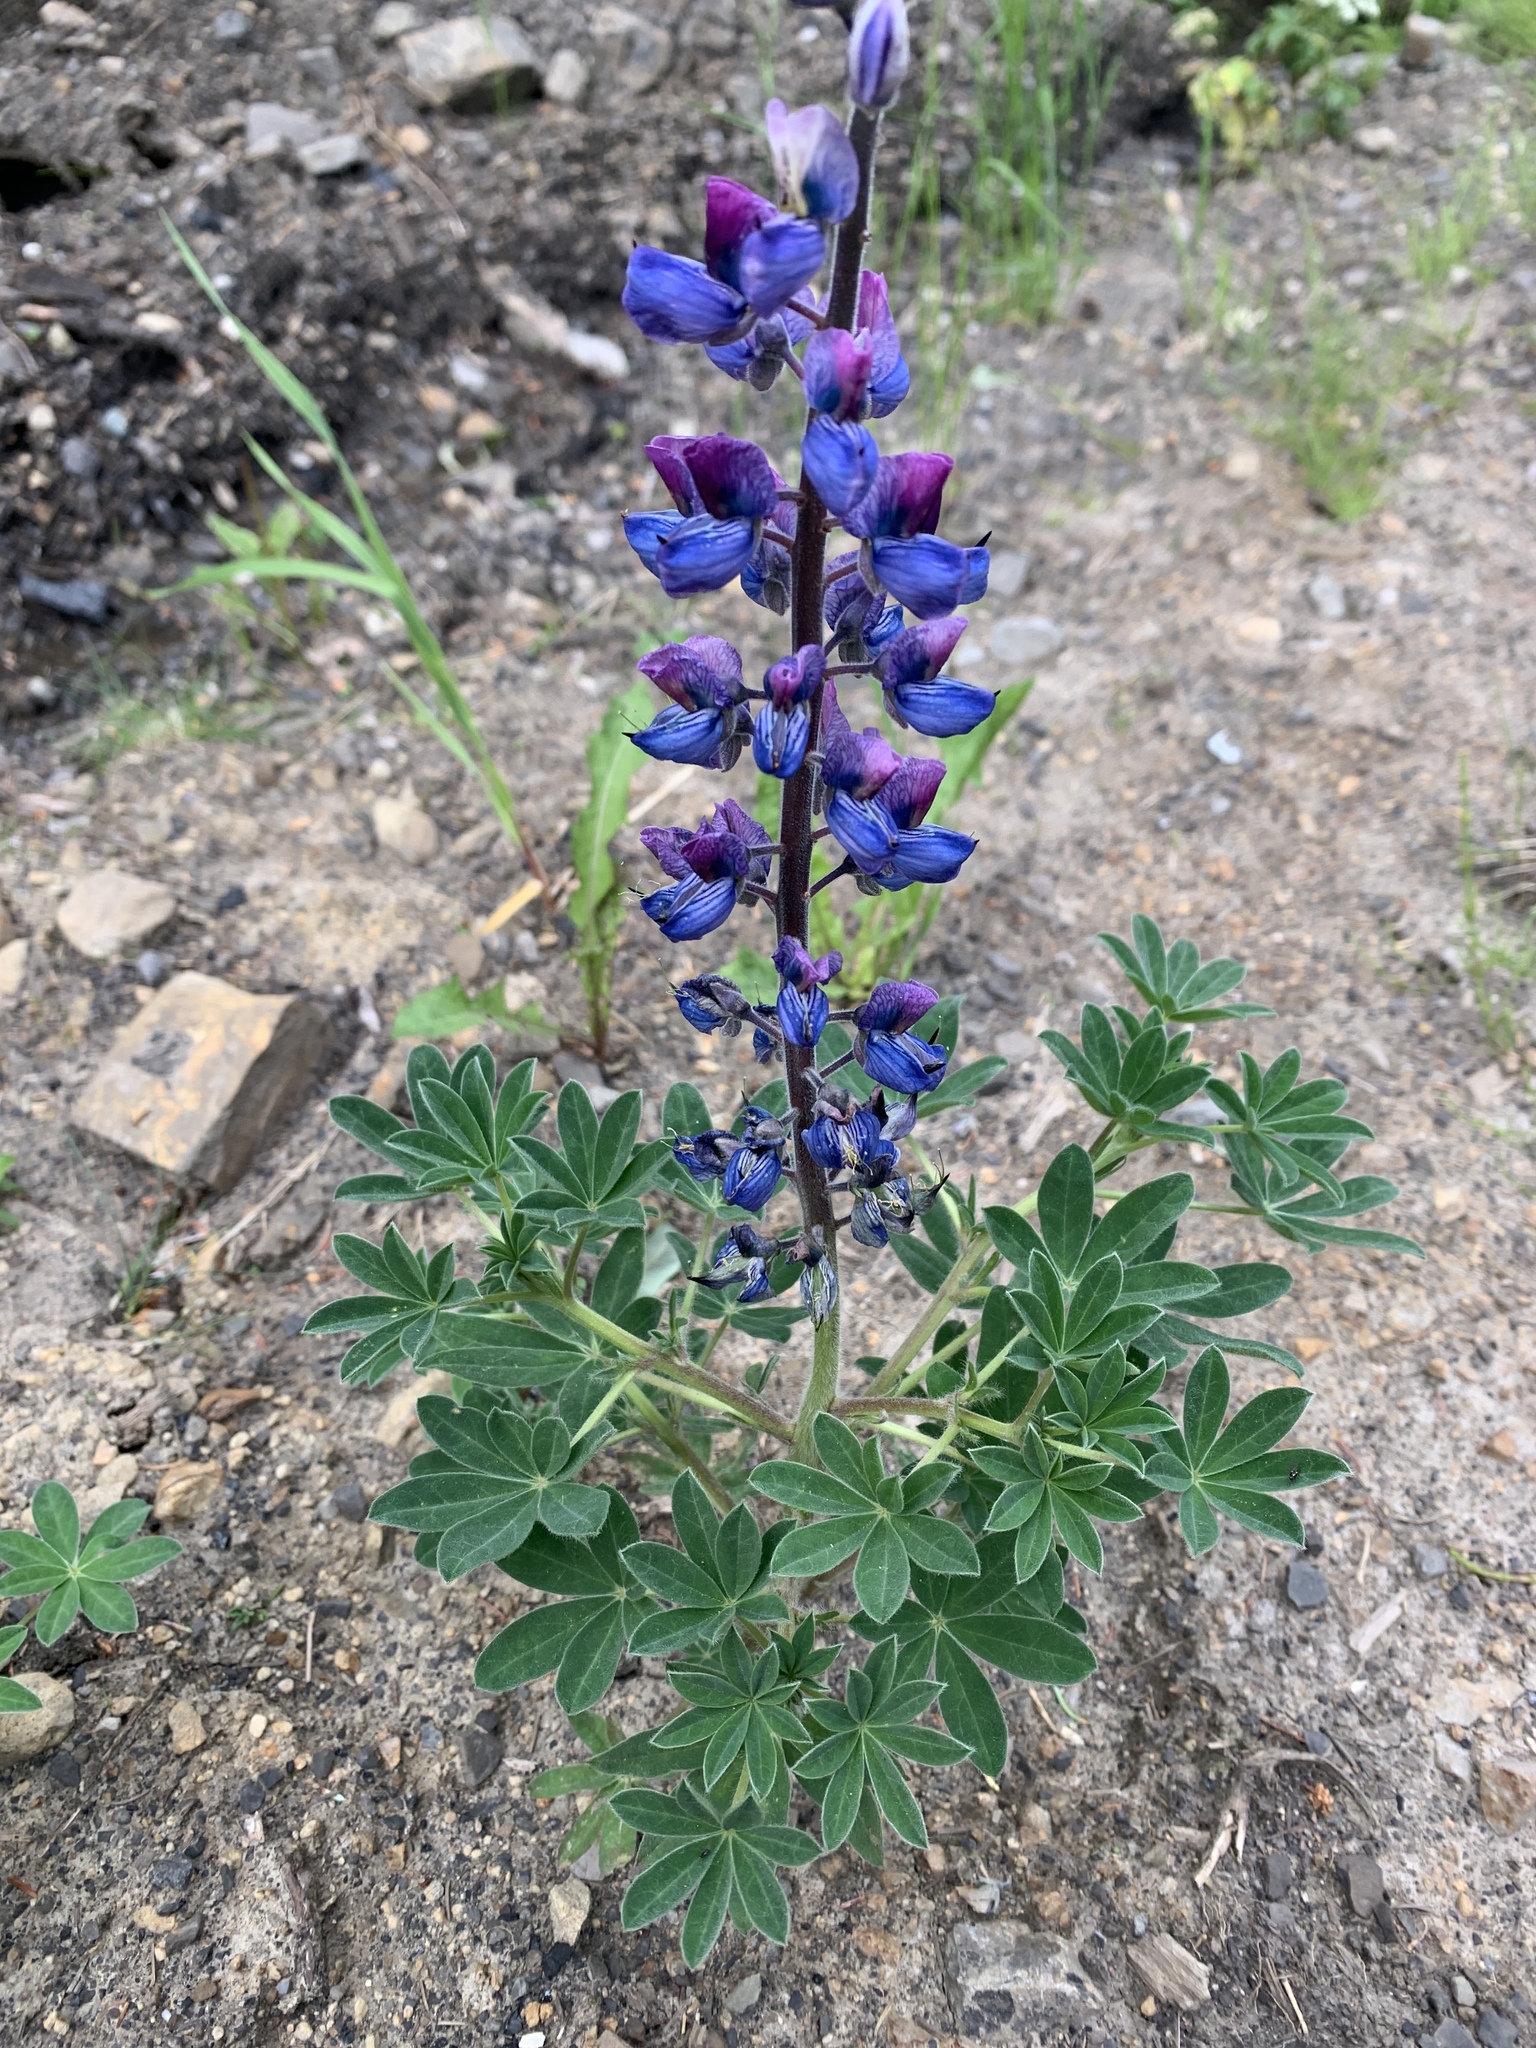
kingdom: Plantae
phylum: Tracheophyta
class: Magnoliopsida
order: Fabales
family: Fabaceae
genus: Lupinus
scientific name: Lupinus nootkatensis
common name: Nootka lupine
